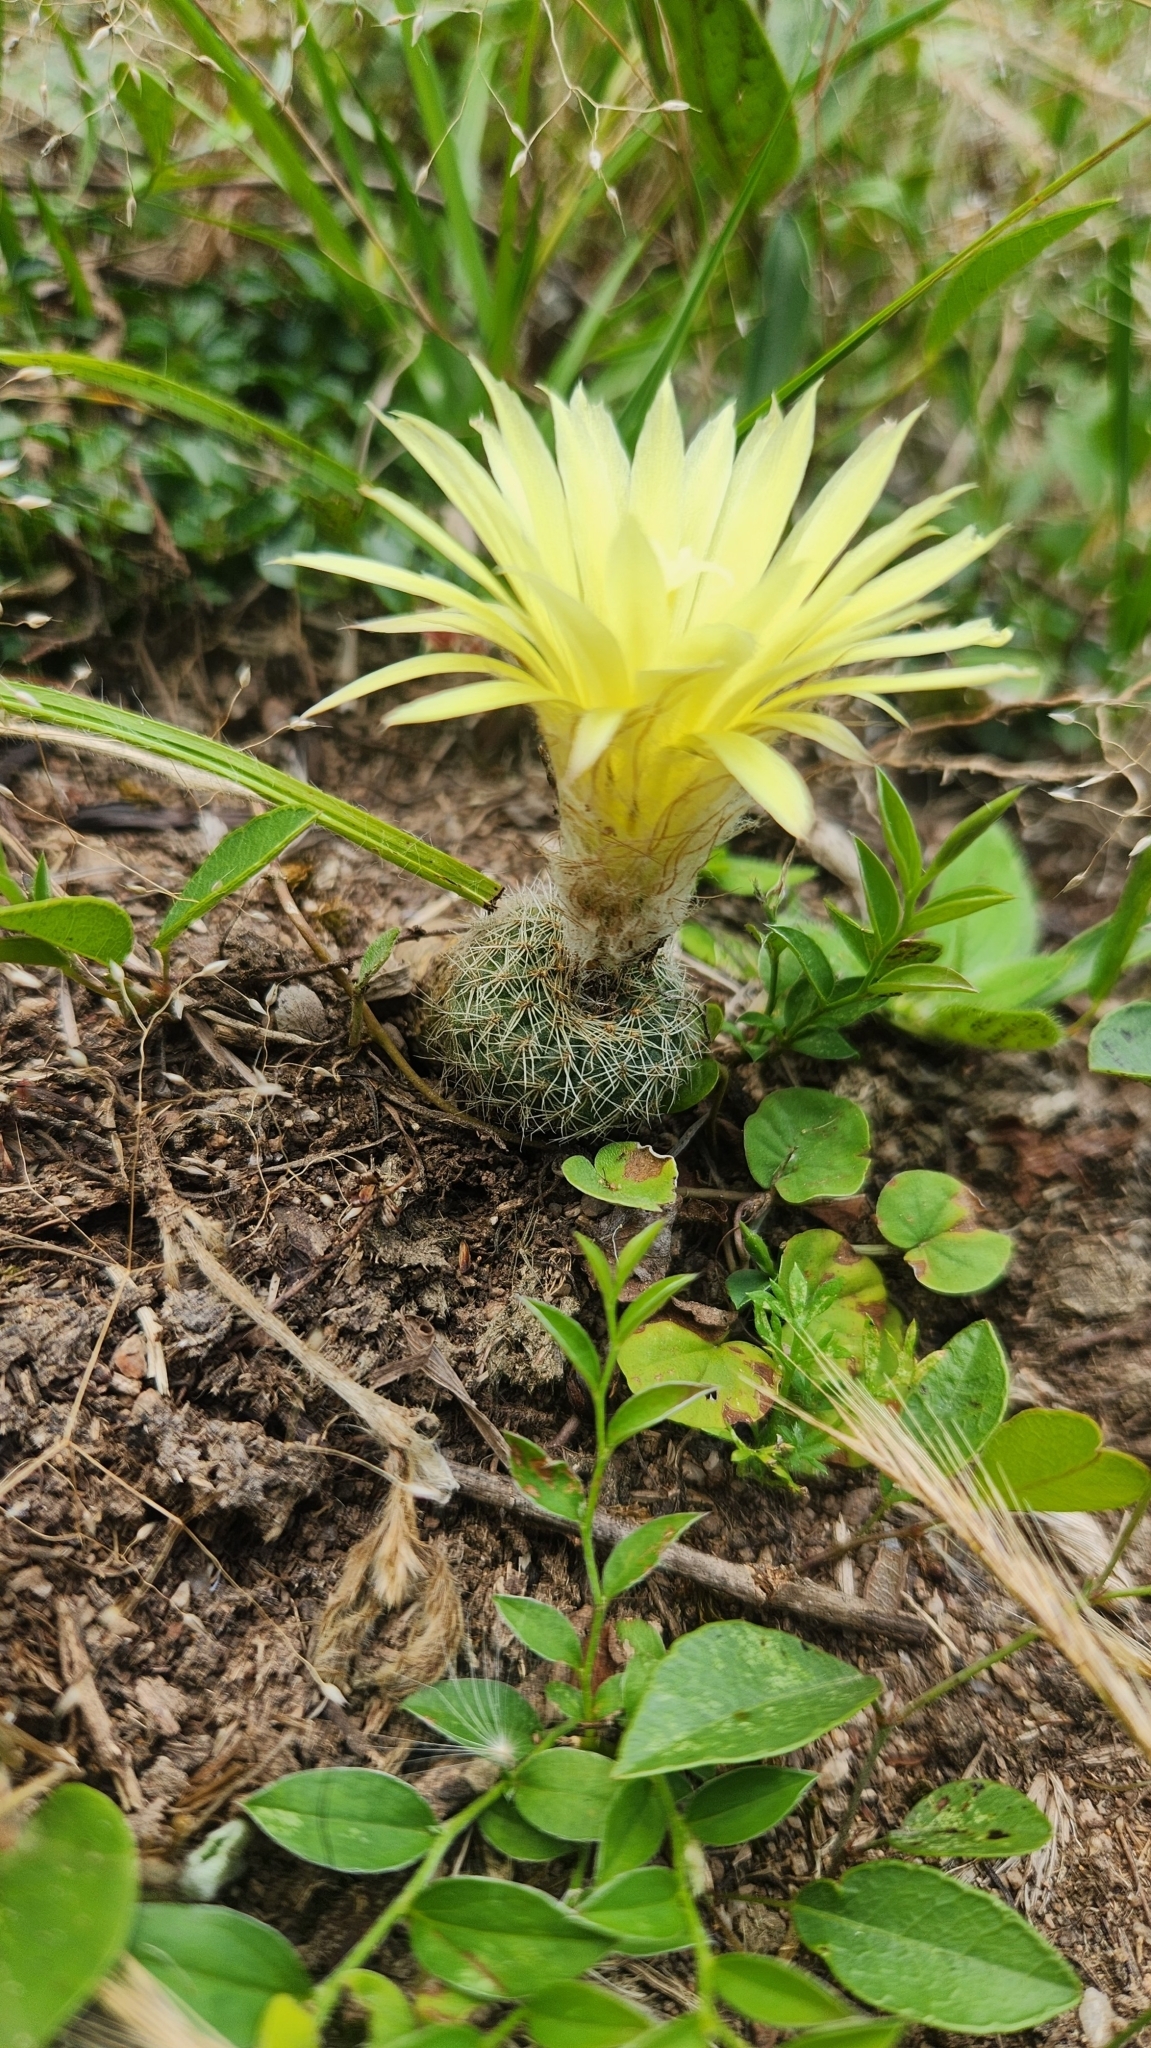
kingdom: Plantae
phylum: Tracheophyta
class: Magnoliopsida
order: Caryophyllales
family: Cactaceae
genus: Frailea
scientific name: Frailea pygmaea
